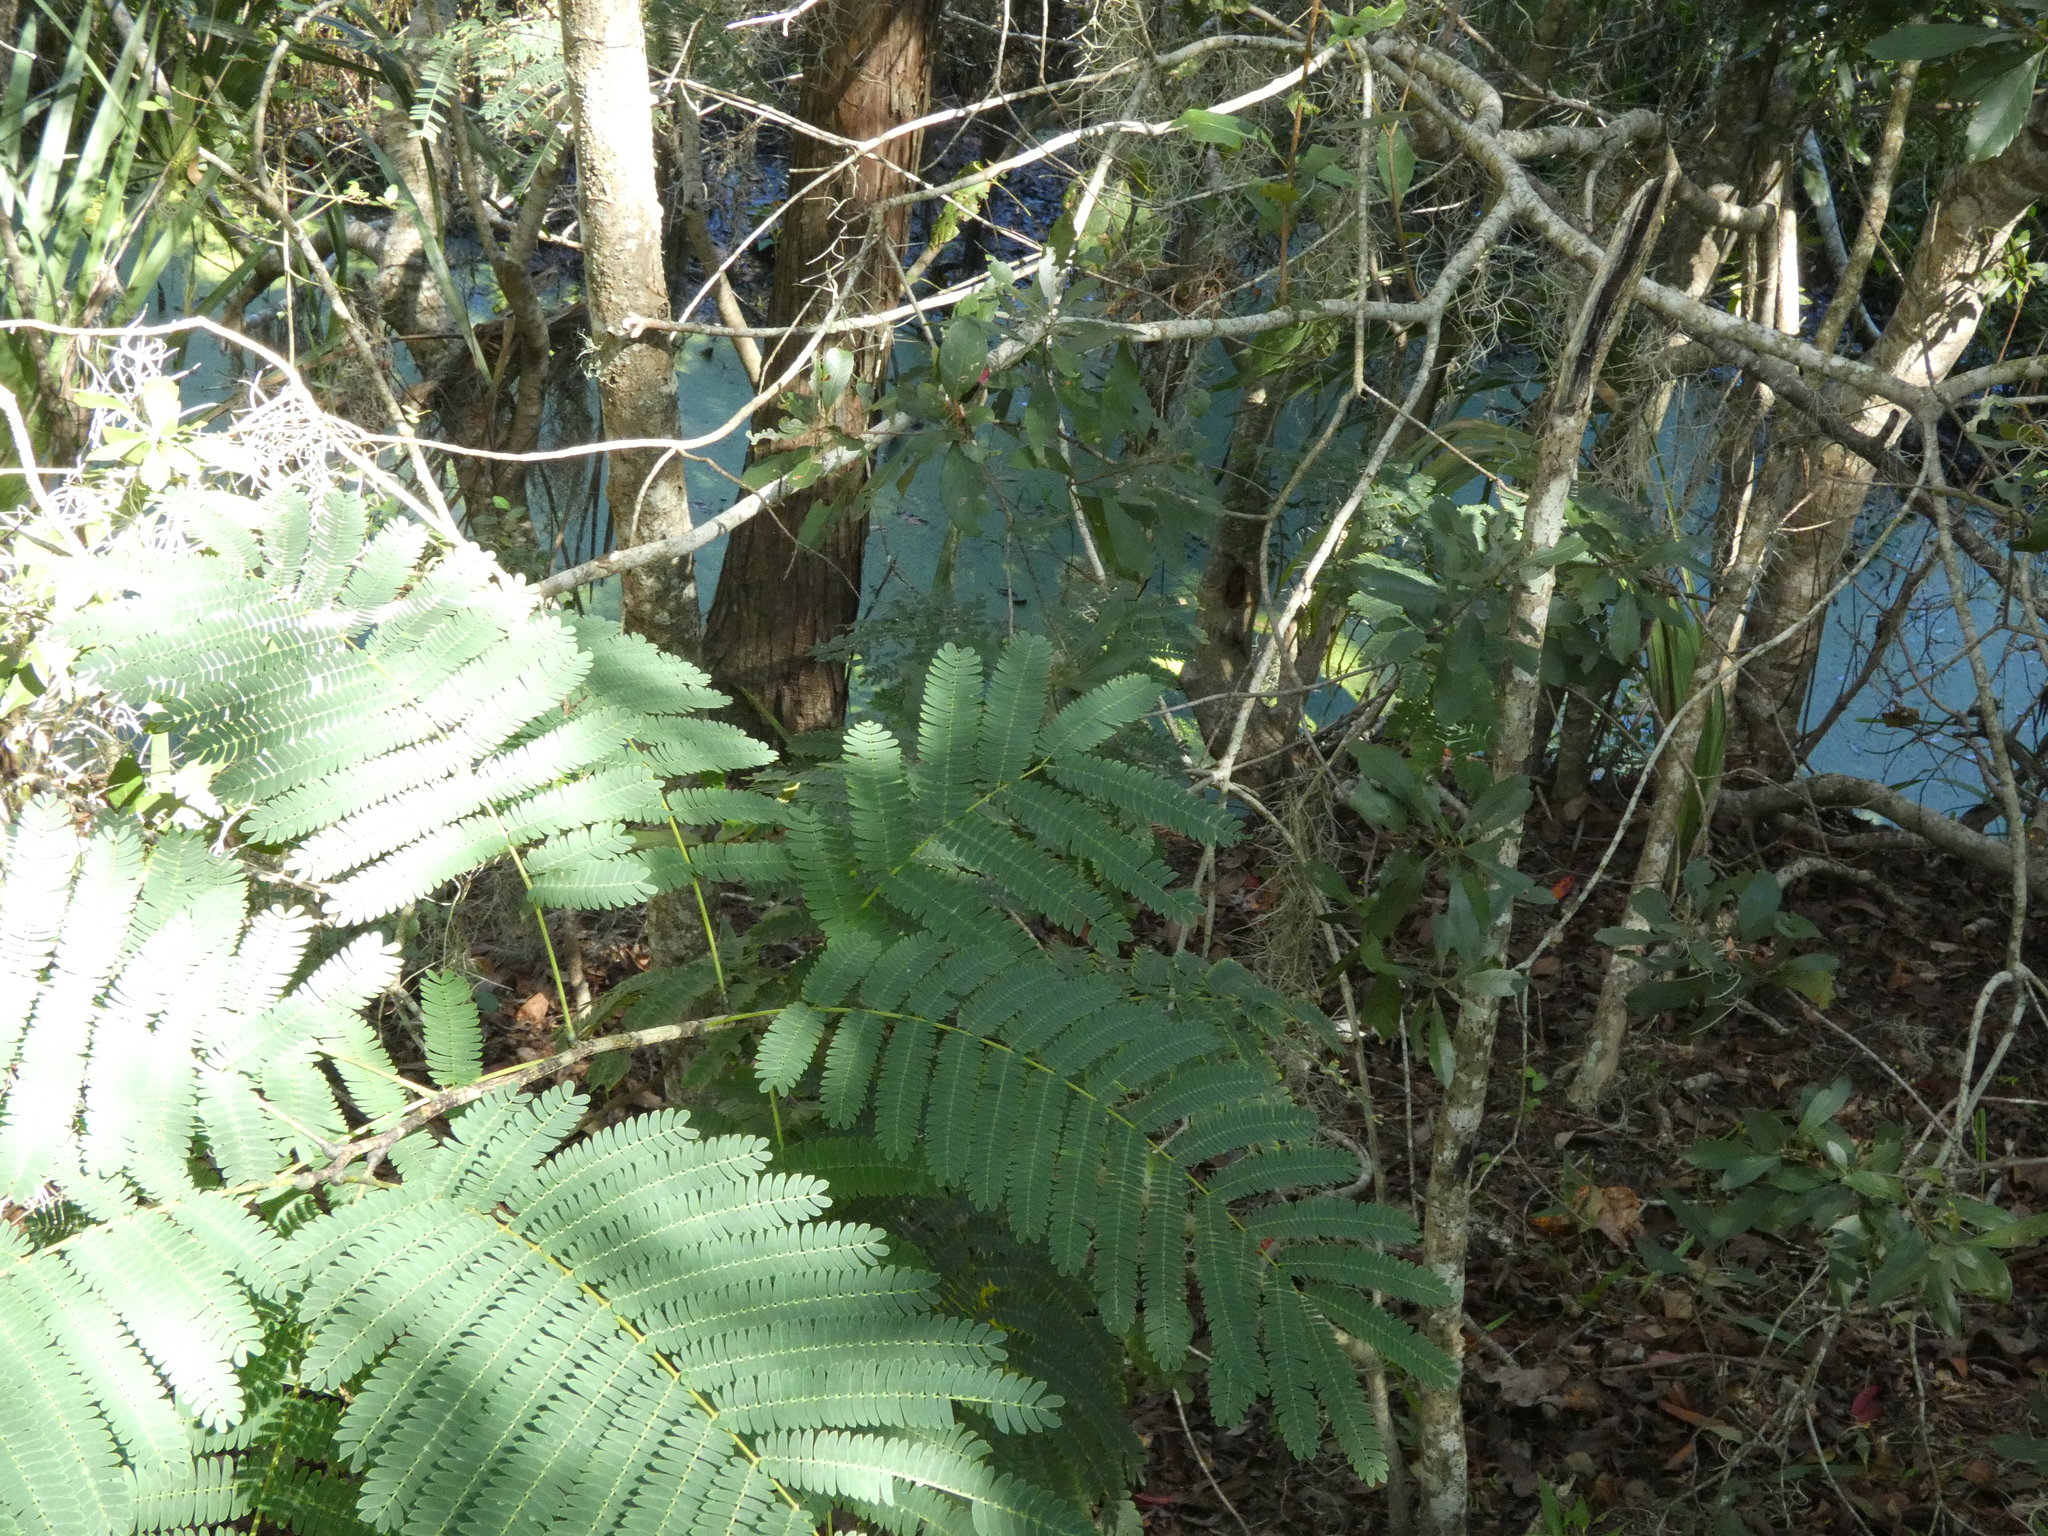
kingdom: Plantae
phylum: Tracheophyta
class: Magnoliopsida
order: Fabales
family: Fabaceae
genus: Albizia
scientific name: Albizia julibrissin
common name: Silktree
